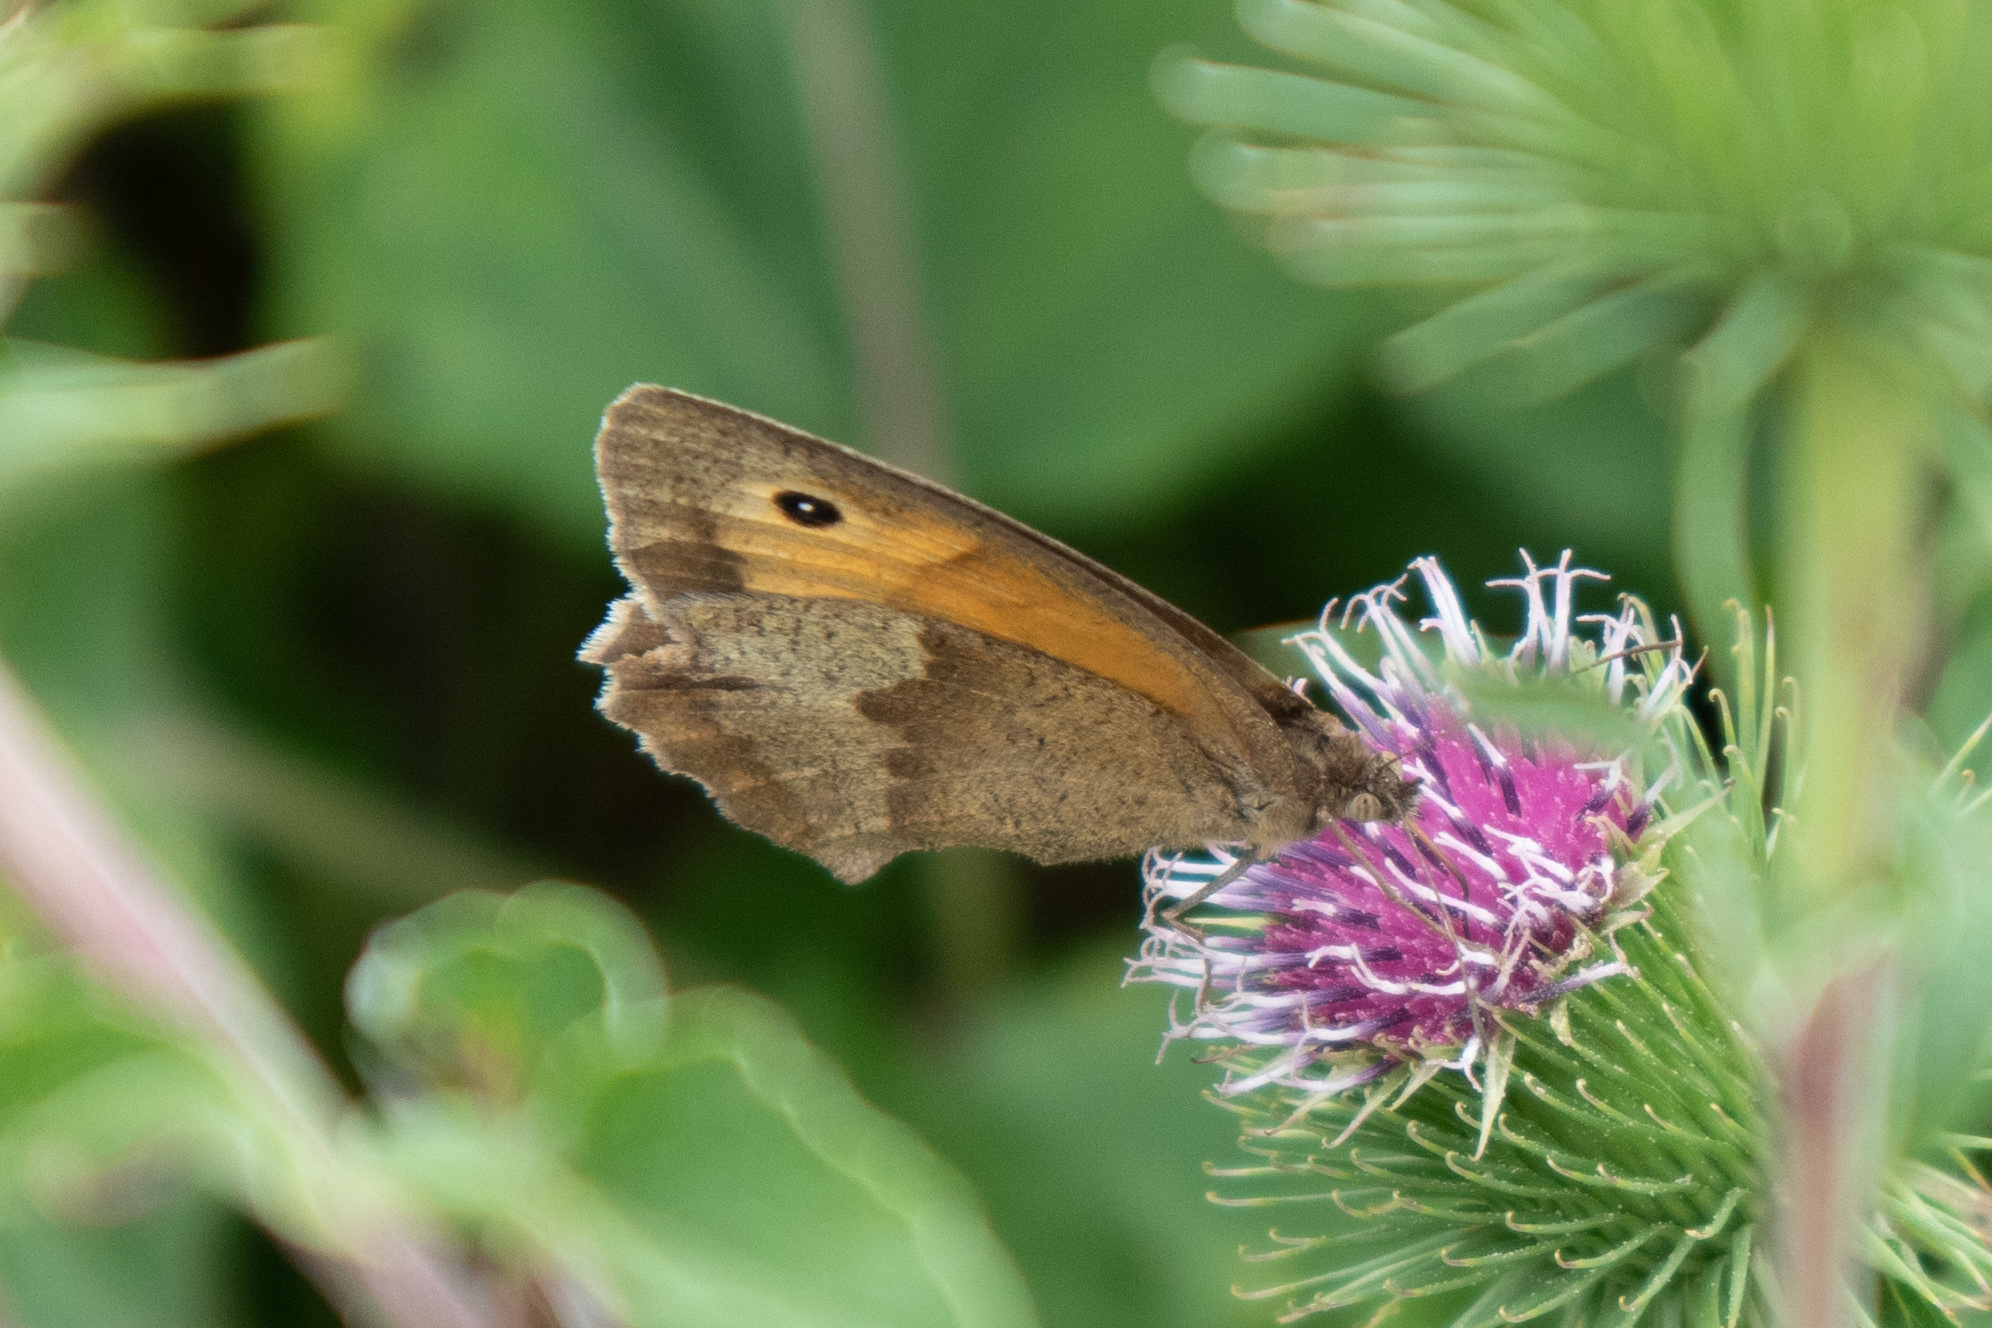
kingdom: Animalia
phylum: Arthropoda
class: Insecta
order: Lepidoptera
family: Nymphalidae
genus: Maniola
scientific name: Maniola jurtina
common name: Meadow brown
